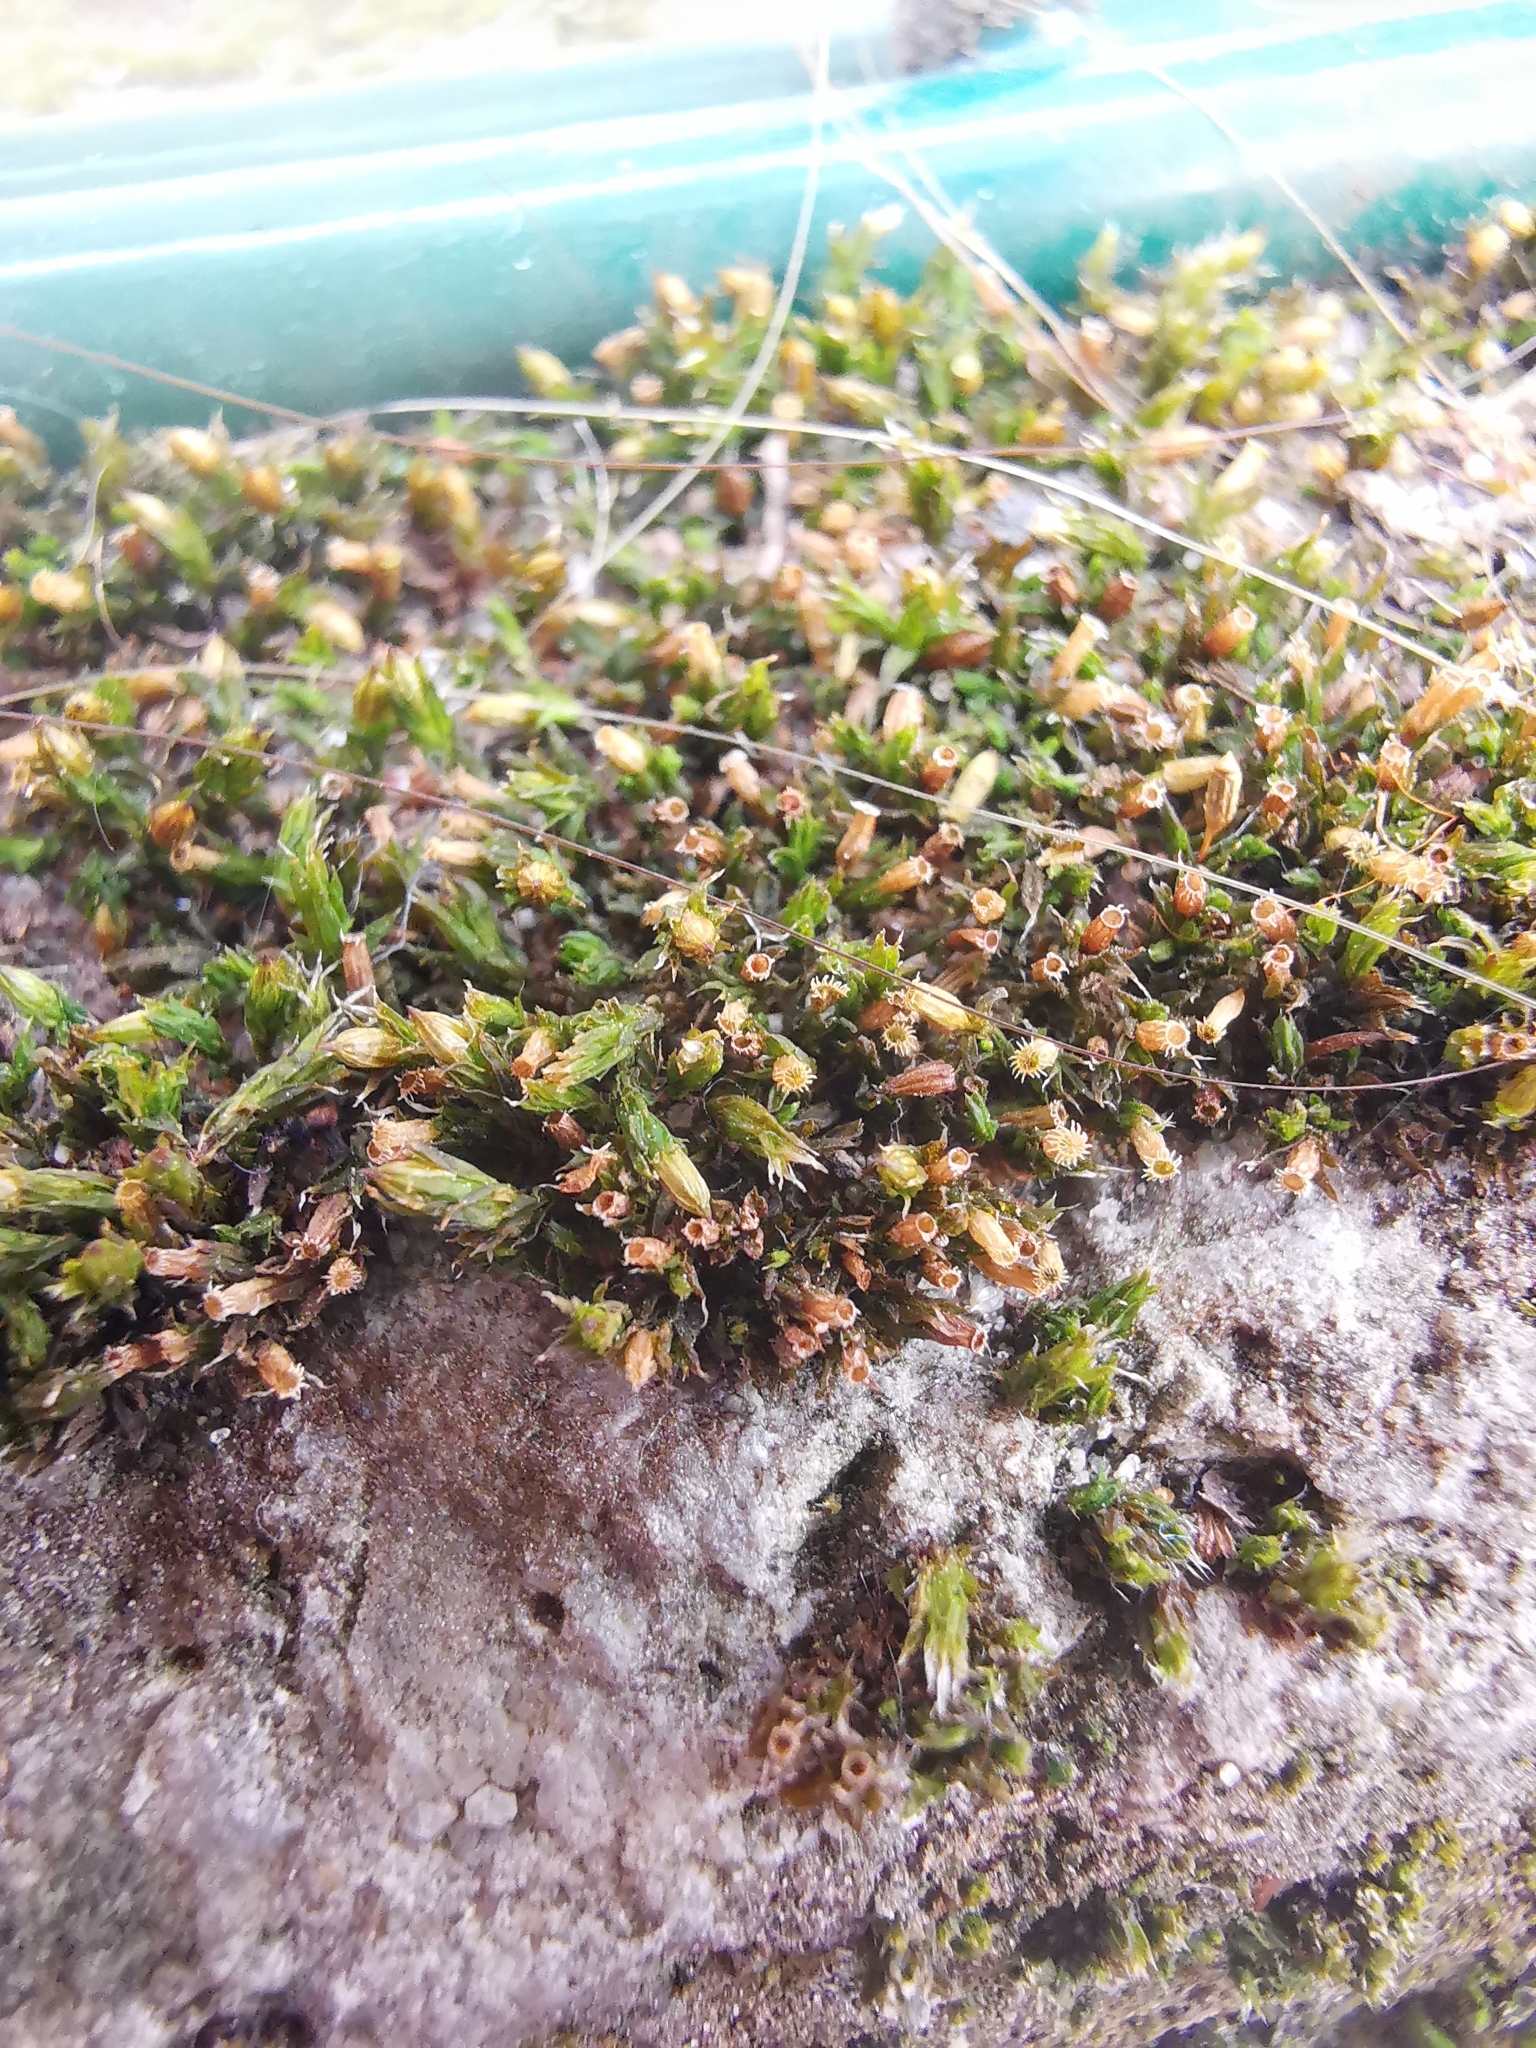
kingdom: Plantae
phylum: Bryophyta
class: Bryopsida
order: Orthotrichales
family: Orthotrichaceae
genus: Orthotrichum
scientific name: Orthotrichum diaphanum
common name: White-tipped bristle-moss
